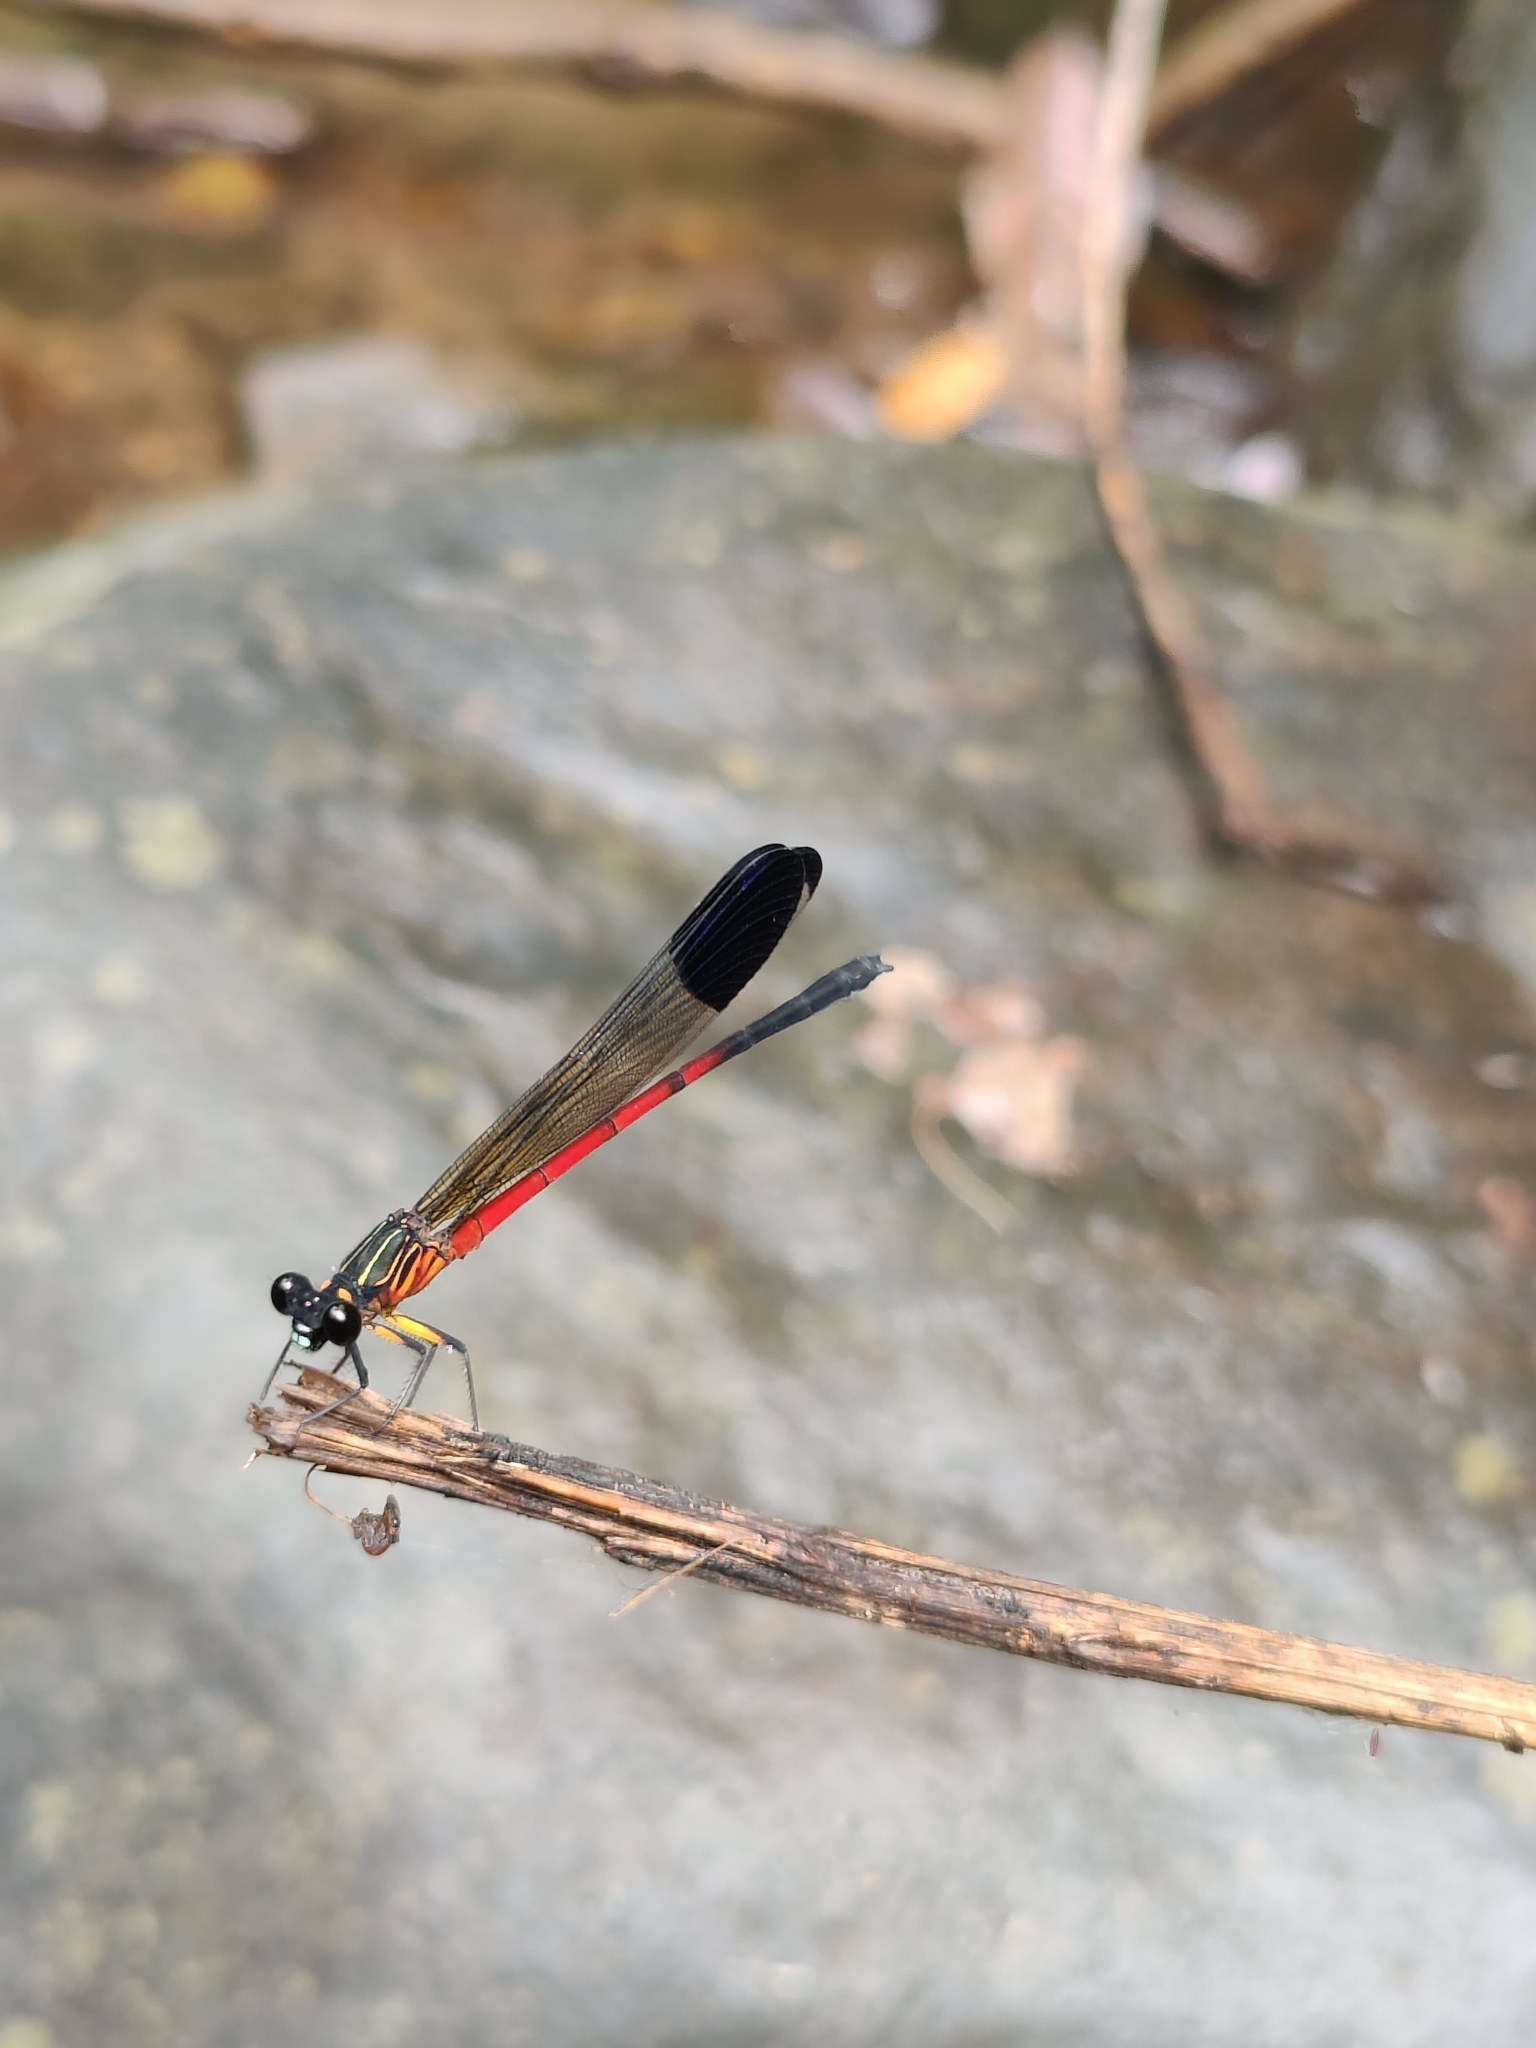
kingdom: Animalia
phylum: Arthropoda
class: Insecta
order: Odonata
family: Euphaeidae
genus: Euphaea
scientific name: Euphaea dispar
